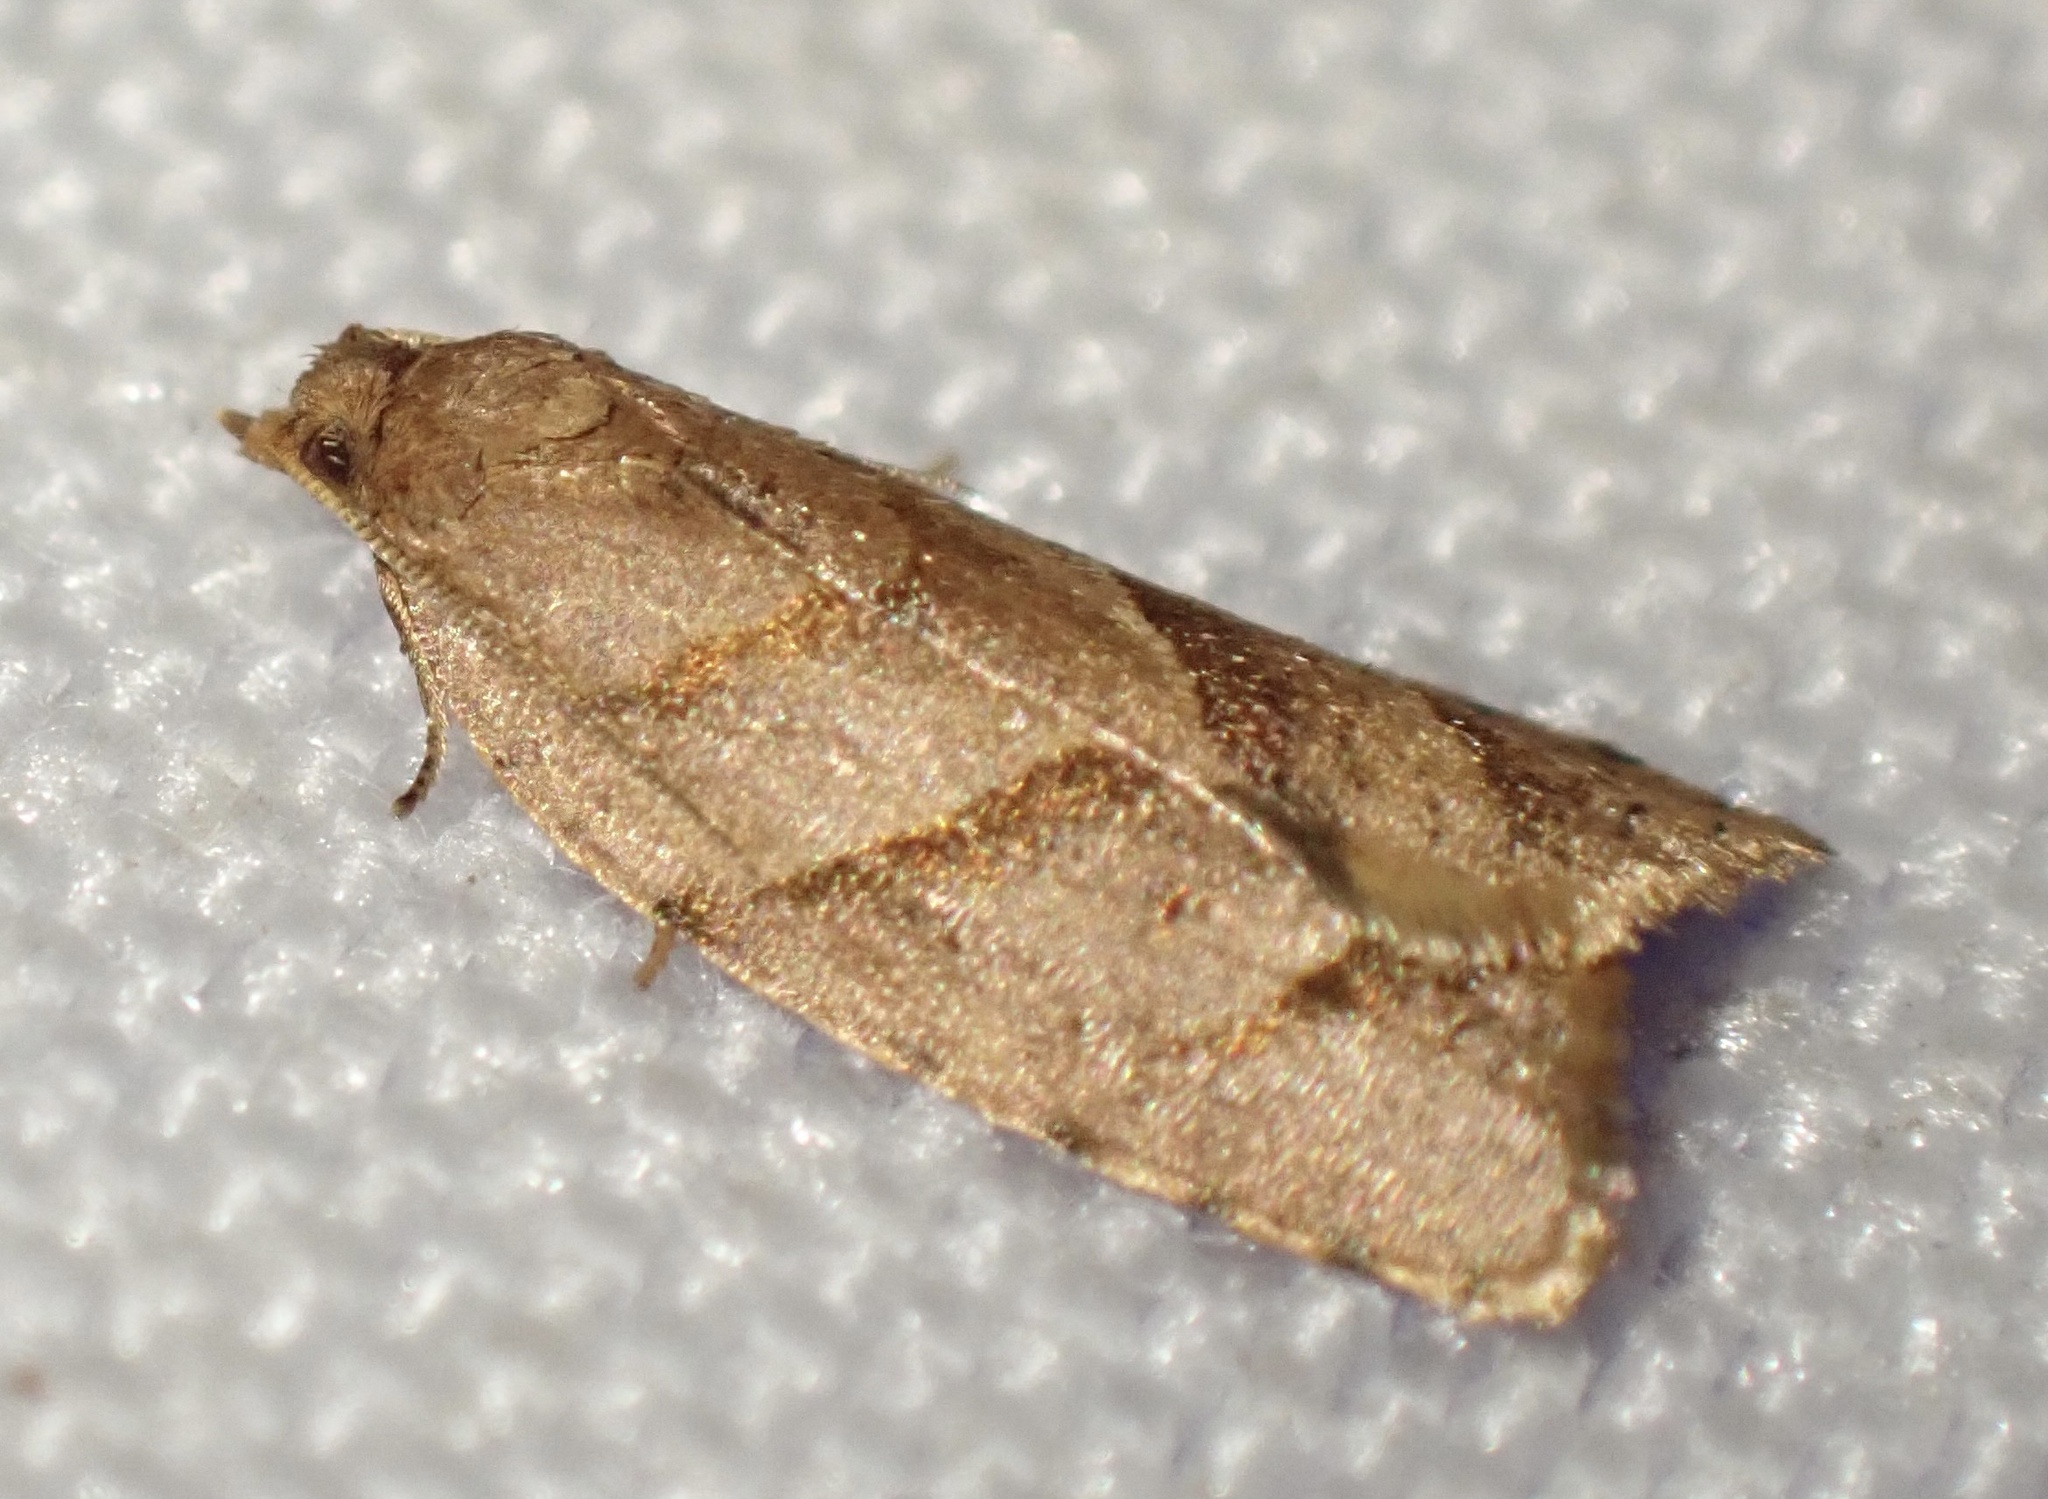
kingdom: Animalia
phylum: Arthropoda
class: Insecta
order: Lepidoptera
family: Tortricidae
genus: Capua
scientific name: Capua paraloxa
